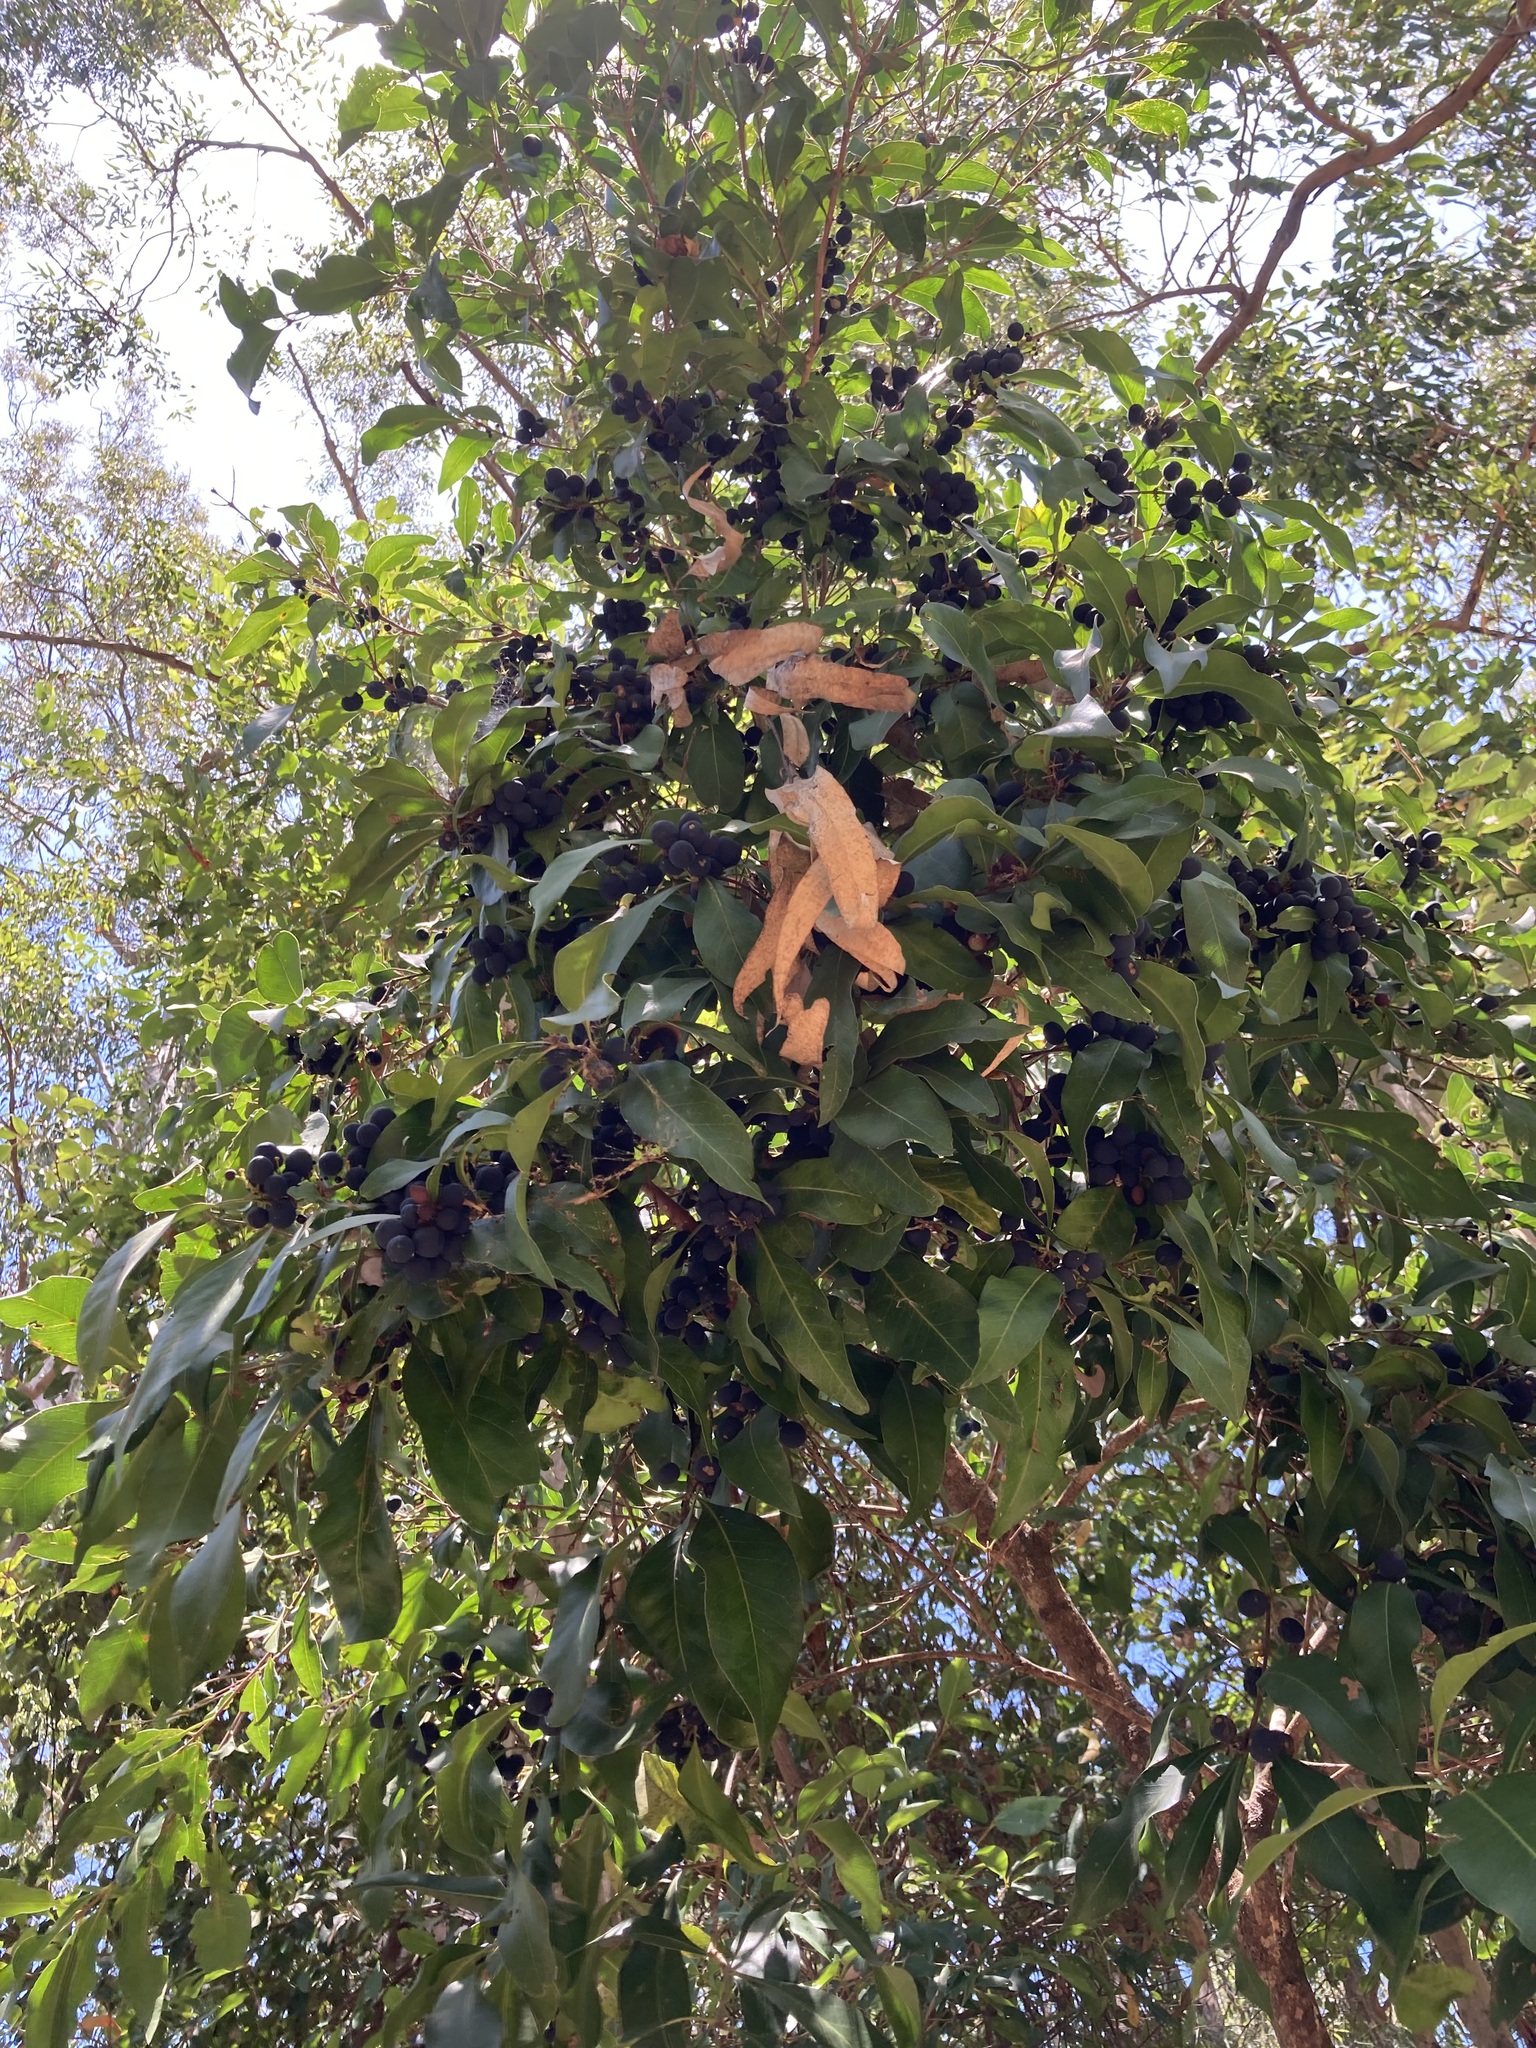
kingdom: Plantae
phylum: Tracheophyta
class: Magnoliopsida
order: Lamiales
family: Oleaceae
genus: Notelaea
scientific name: Notelaea longifolia
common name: Large mock olive
